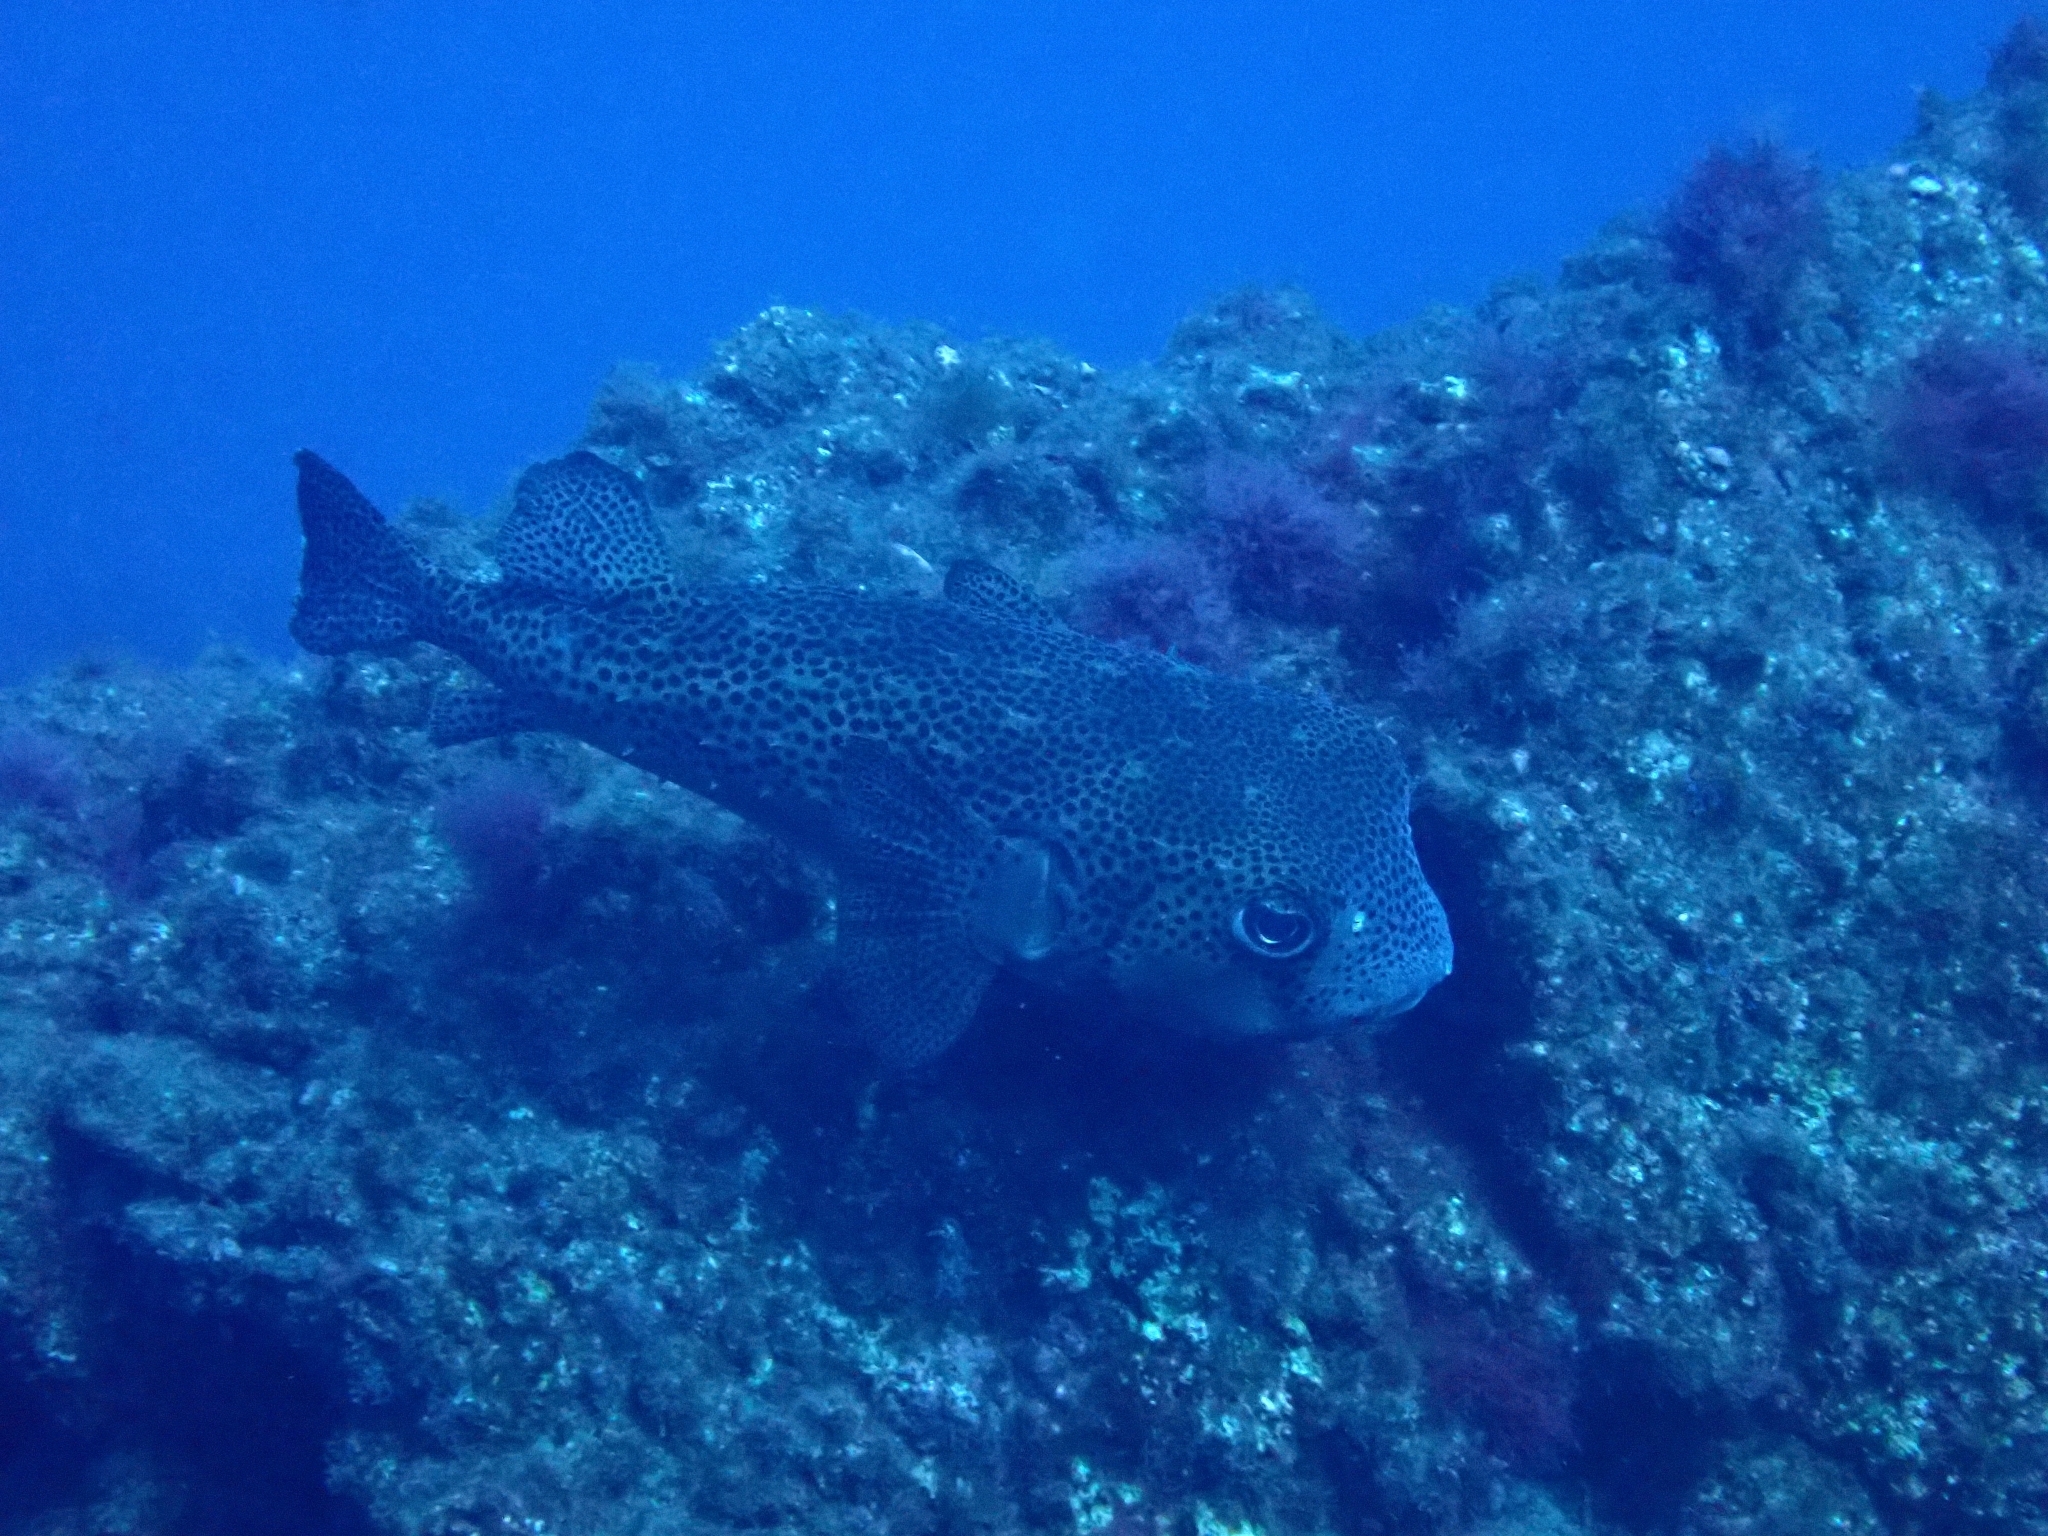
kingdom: Animalia
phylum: Chordata
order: Tetraodontiformes
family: Diodontidae
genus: Chilomycterus
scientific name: Chilomycterus reticulatus
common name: Spotfin burrfish
